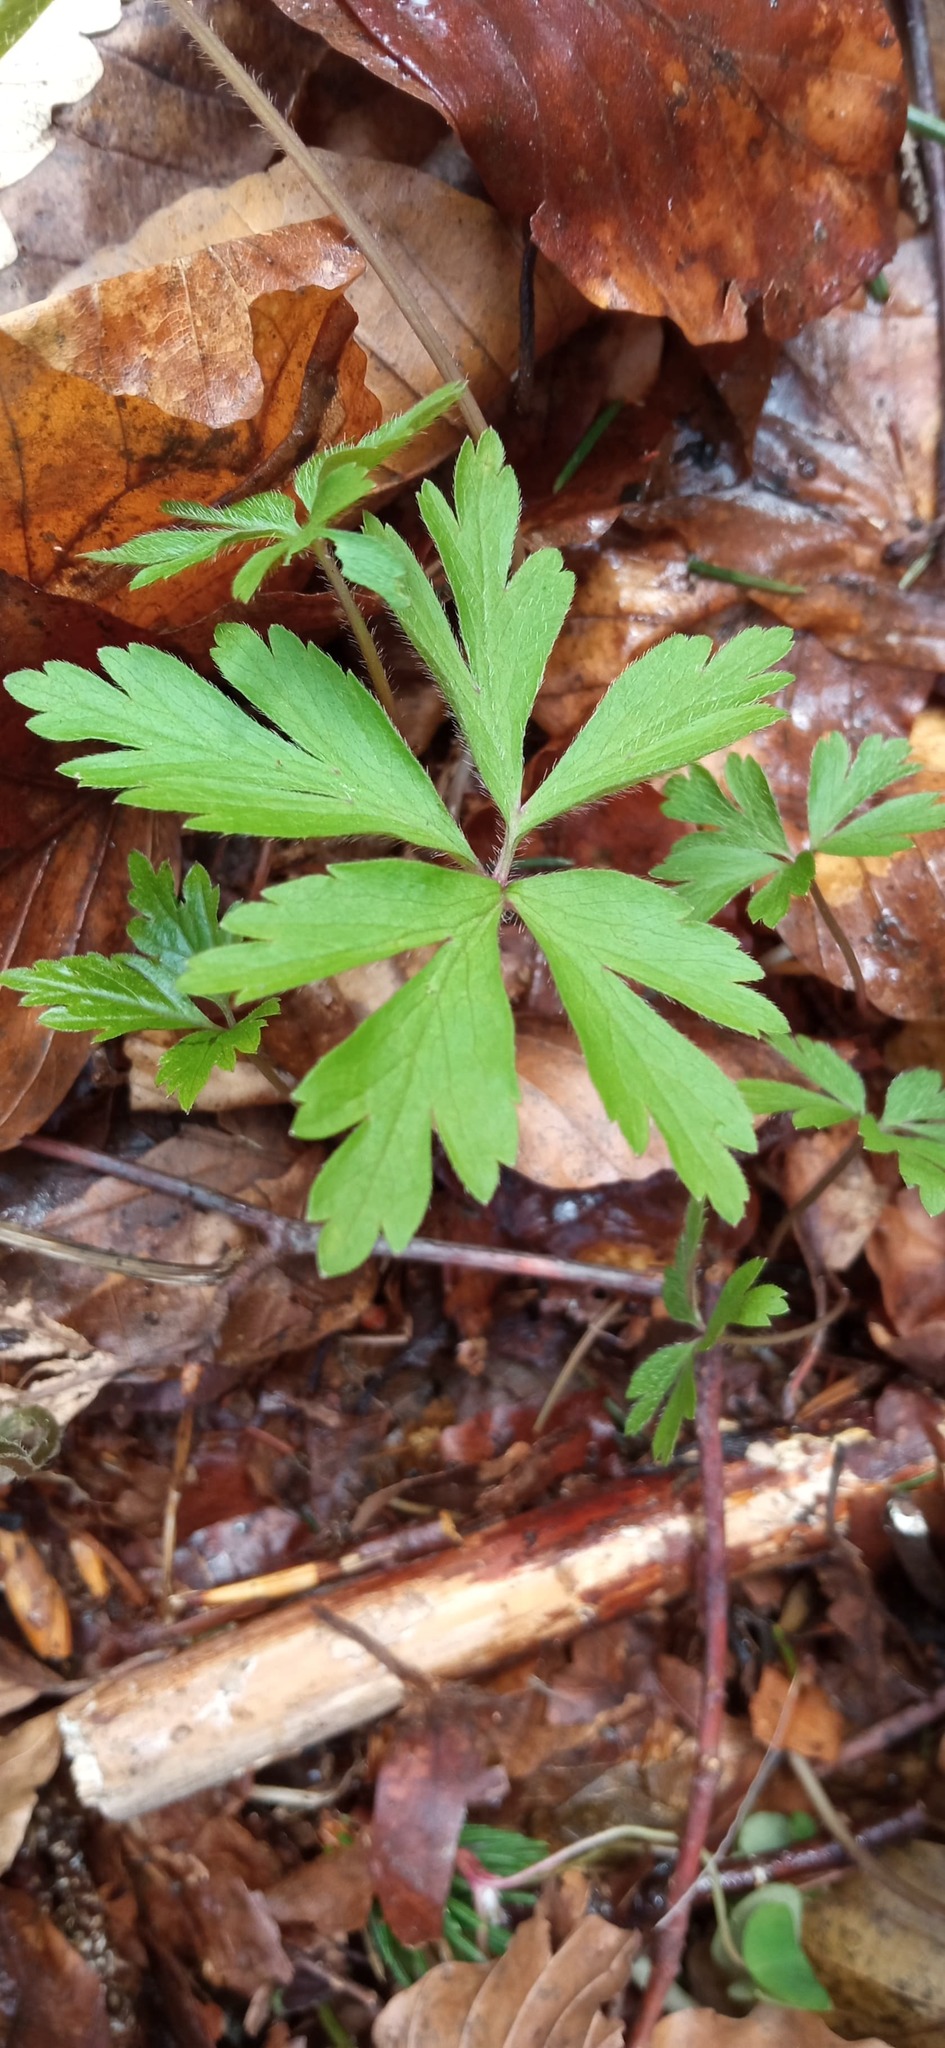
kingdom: Plantae
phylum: Tracheophyta
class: Magnoliopsida
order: Ranunculales
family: Ranunculaceae
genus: Anemone
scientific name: Anemone nemorosa
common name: Wood anemone
